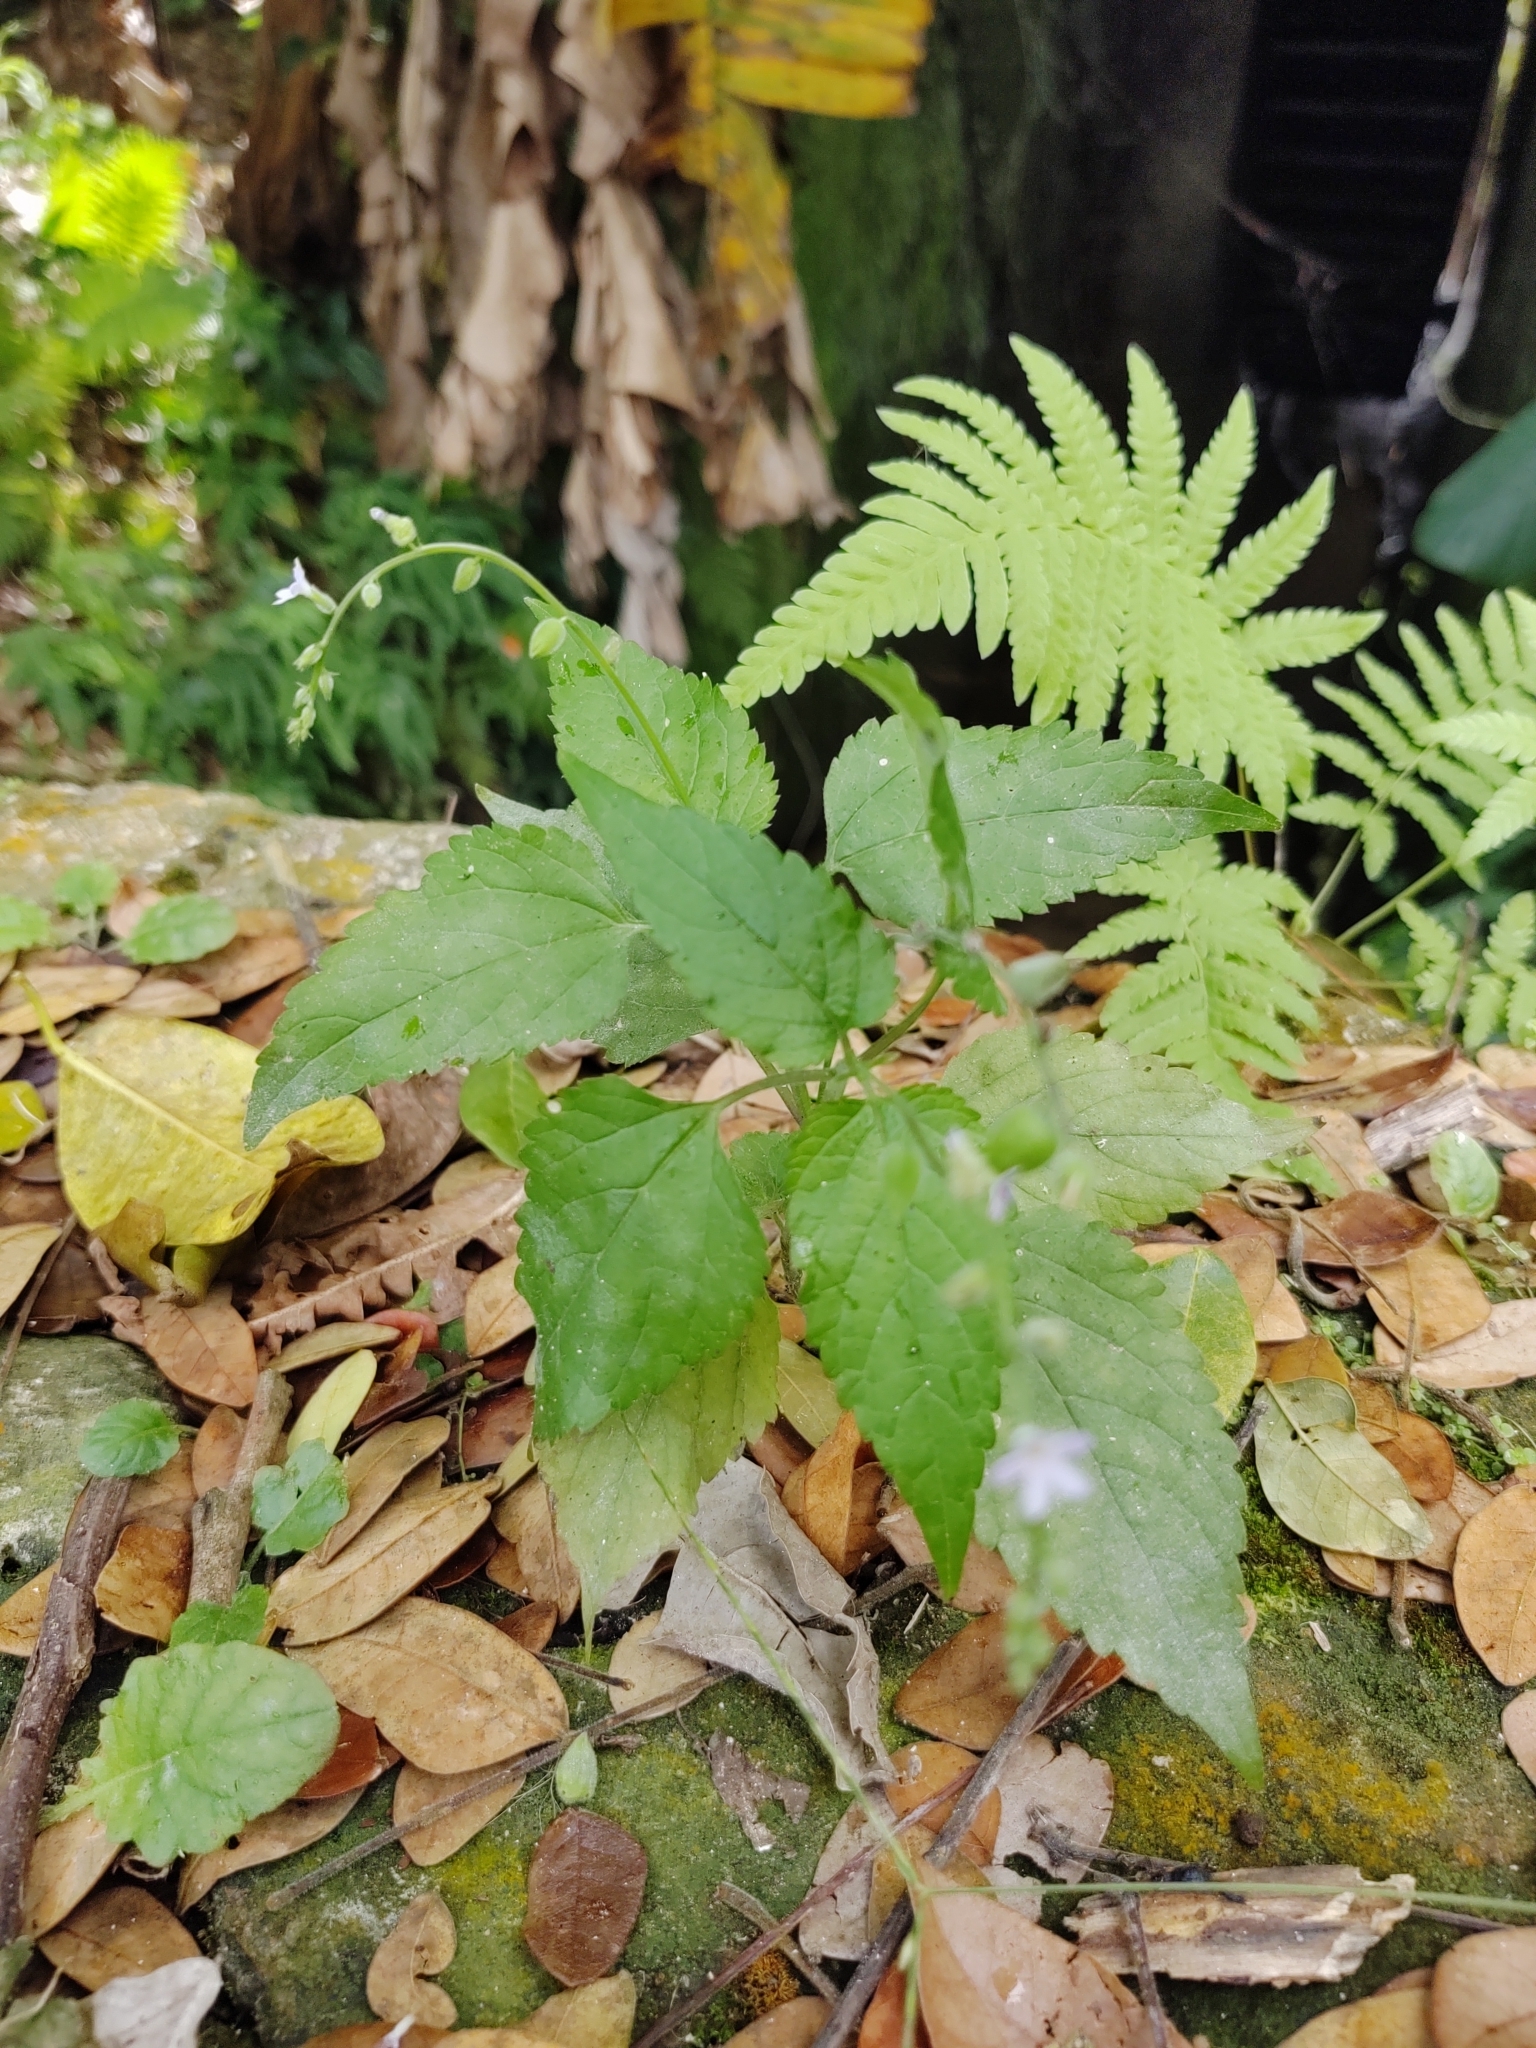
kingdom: Plantae
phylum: Tracheophyta
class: Magnoliopsida
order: Lamiales
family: Verbenaceae
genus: Priva
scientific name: Priva lappulacea
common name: Fasten-'pon-coat
